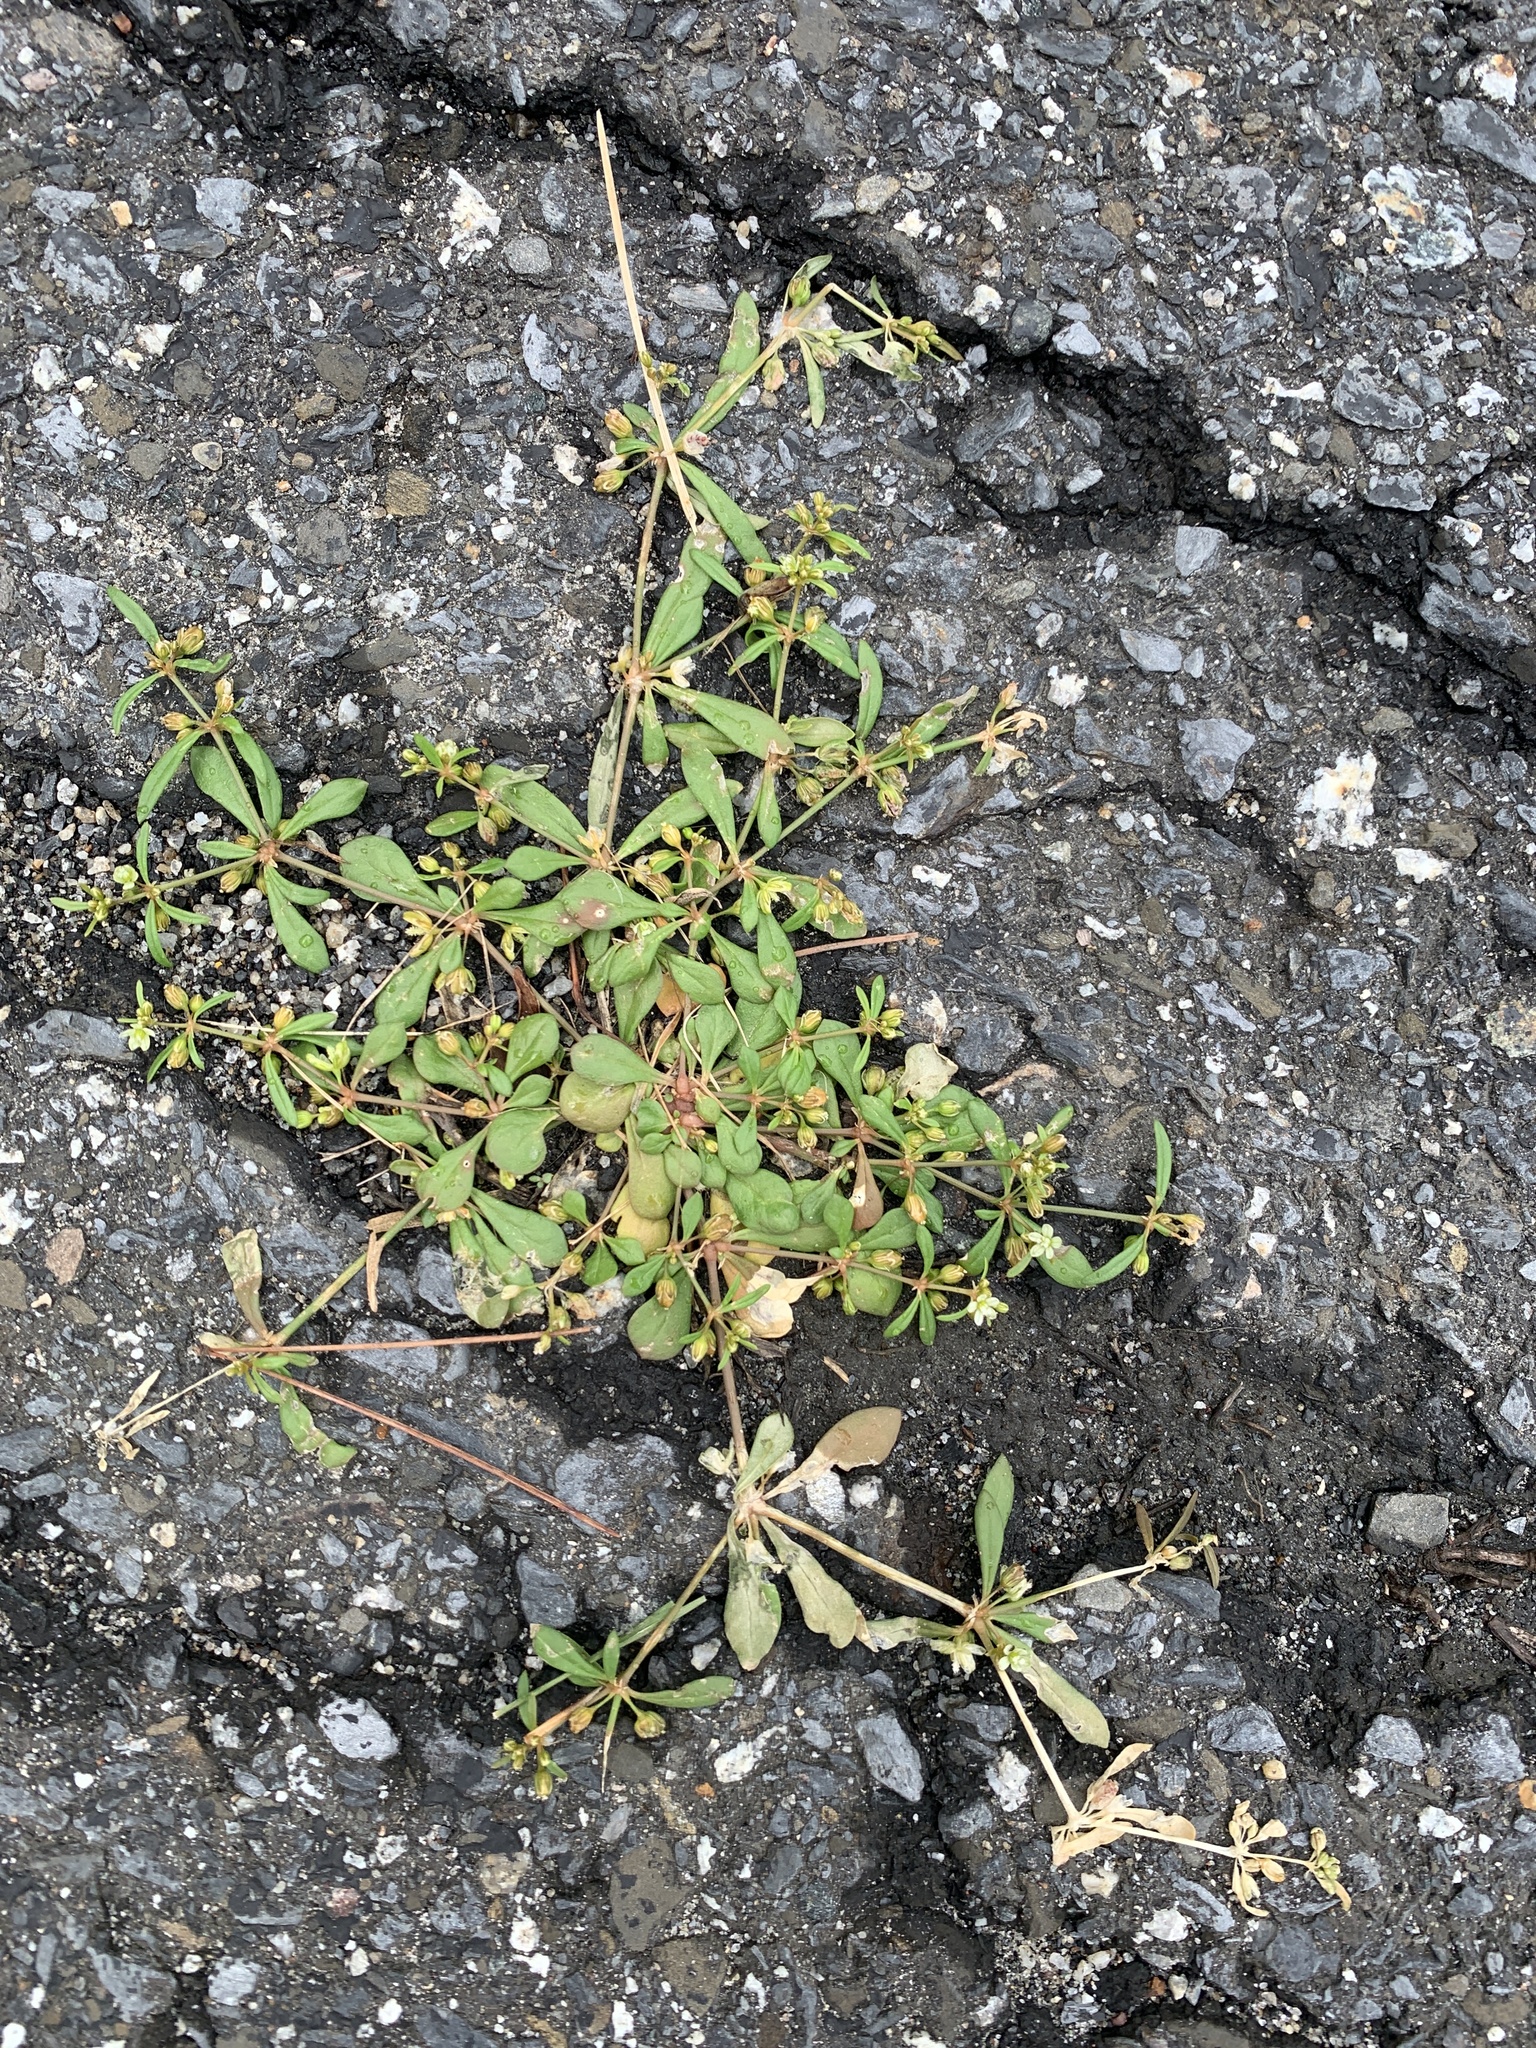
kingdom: Plantae
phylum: Tracheophyta
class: Magnoliopsida
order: Caryophyllales
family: Molluginaceae
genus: Mollugo
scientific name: Mollugo verticillata
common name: Green carpetweed
